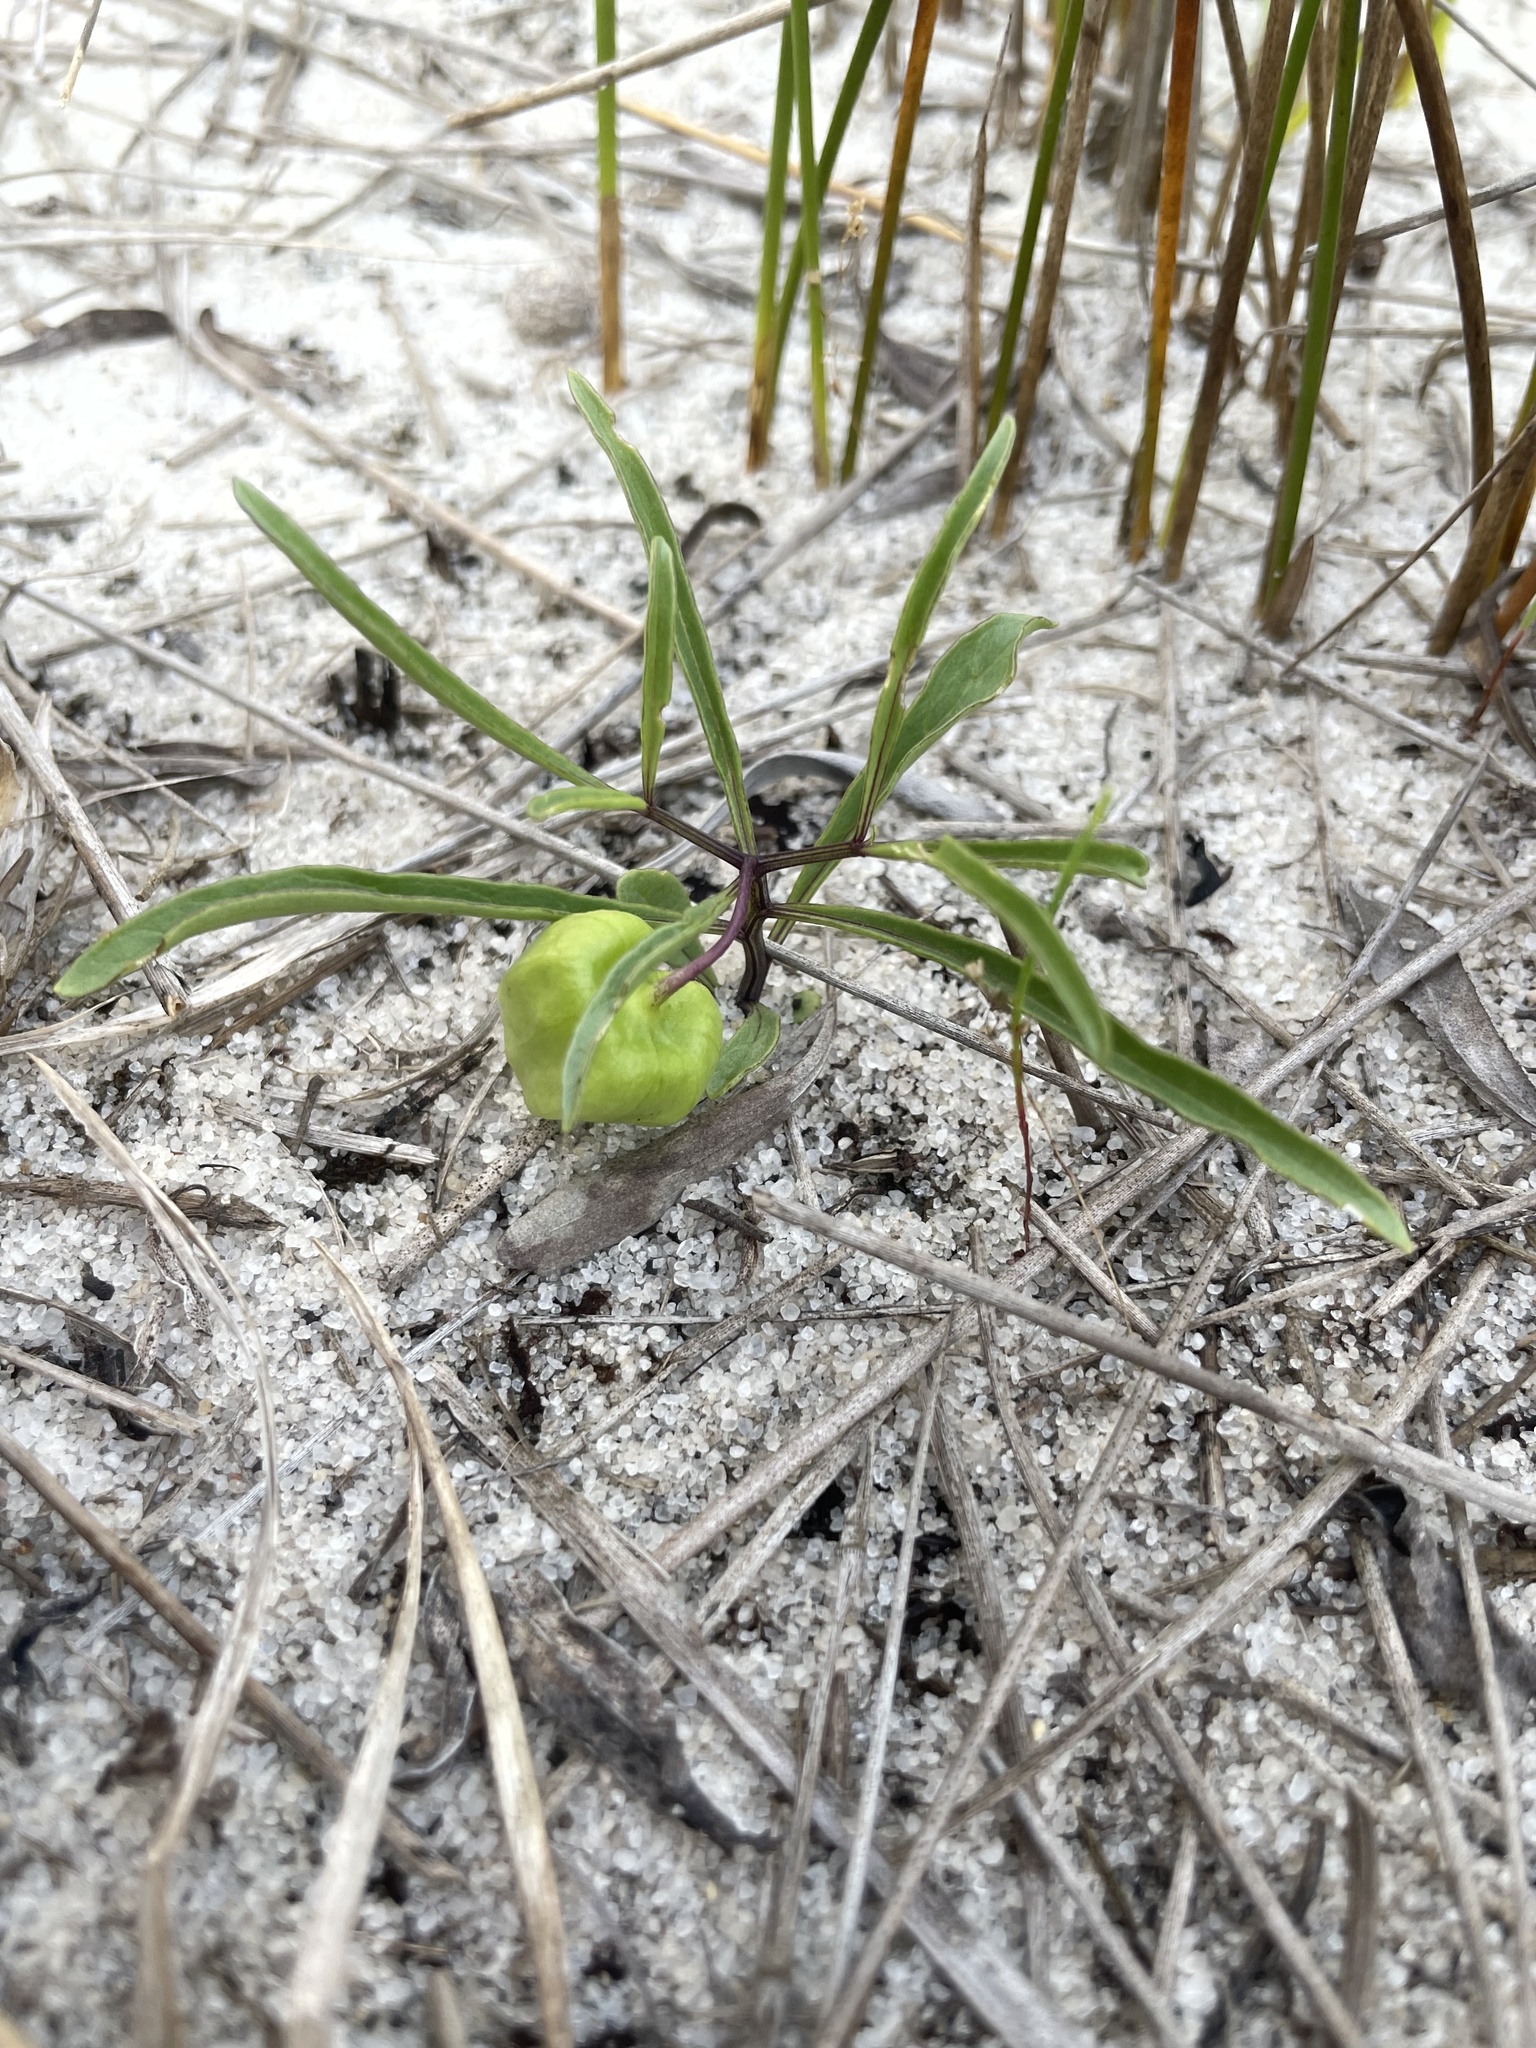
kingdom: Plantae
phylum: Tracheophyta
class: Magnoliopsida
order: Solanales
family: Solanaceae
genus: Physalis
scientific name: Physalis angustifolia
